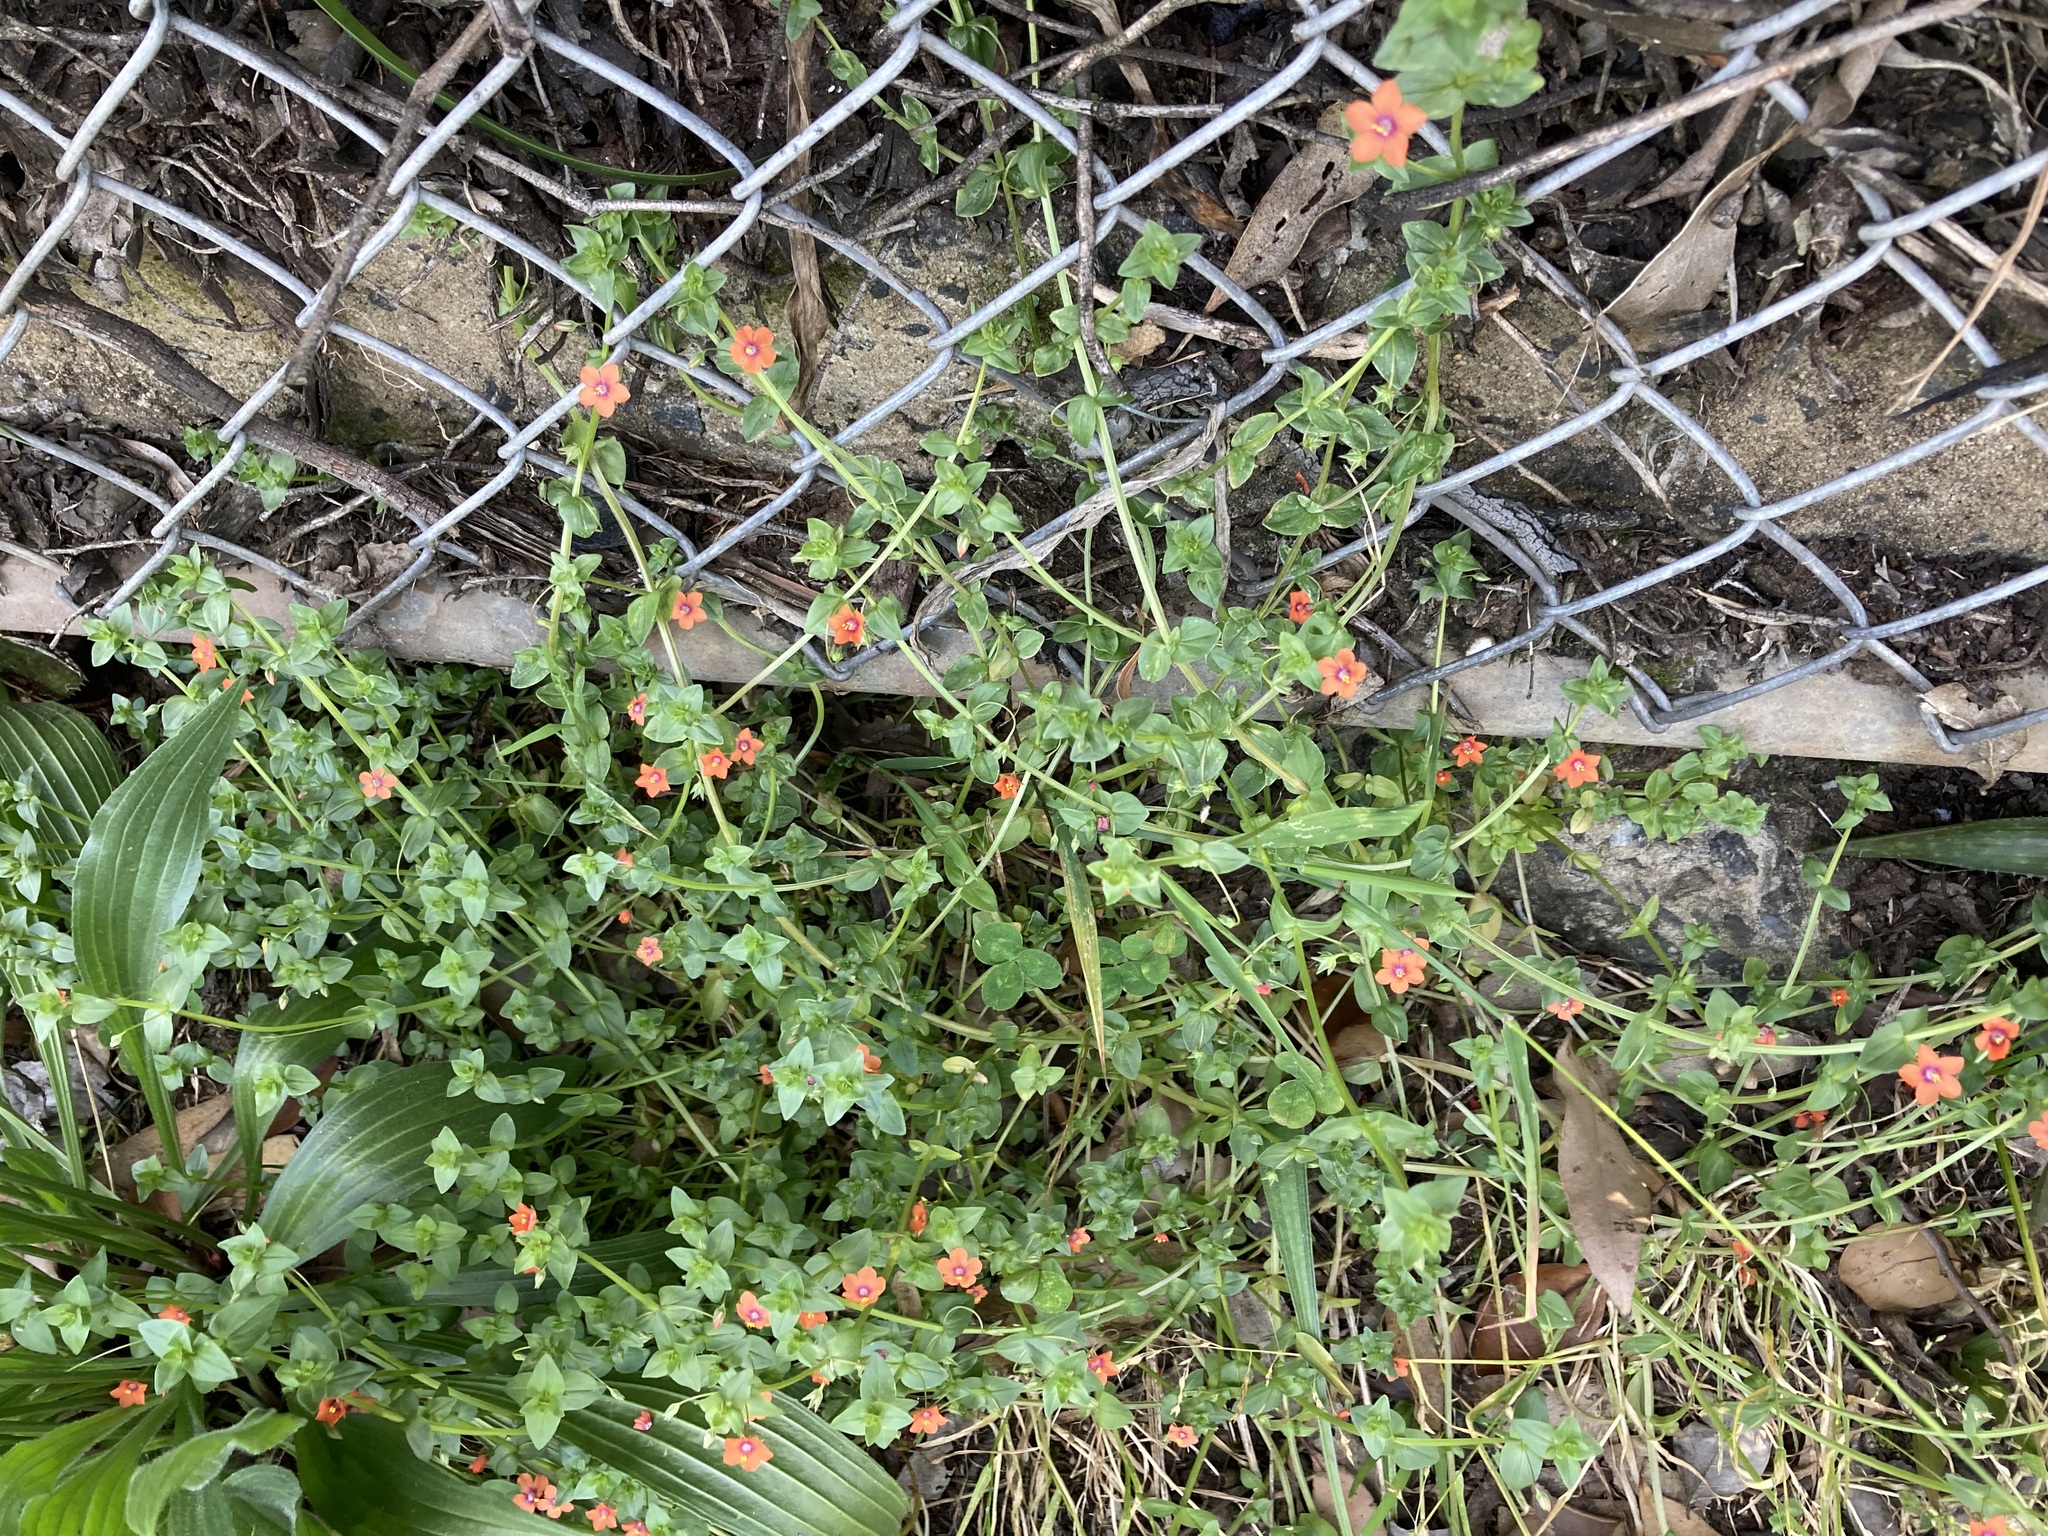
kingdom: Plantae
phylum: Tracheophyta
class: Magnoliopsida
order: Ericales
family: Primulaceae
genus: Lysimachia
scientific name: Lysimachia arvensis
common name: Scarlet pimpernel
